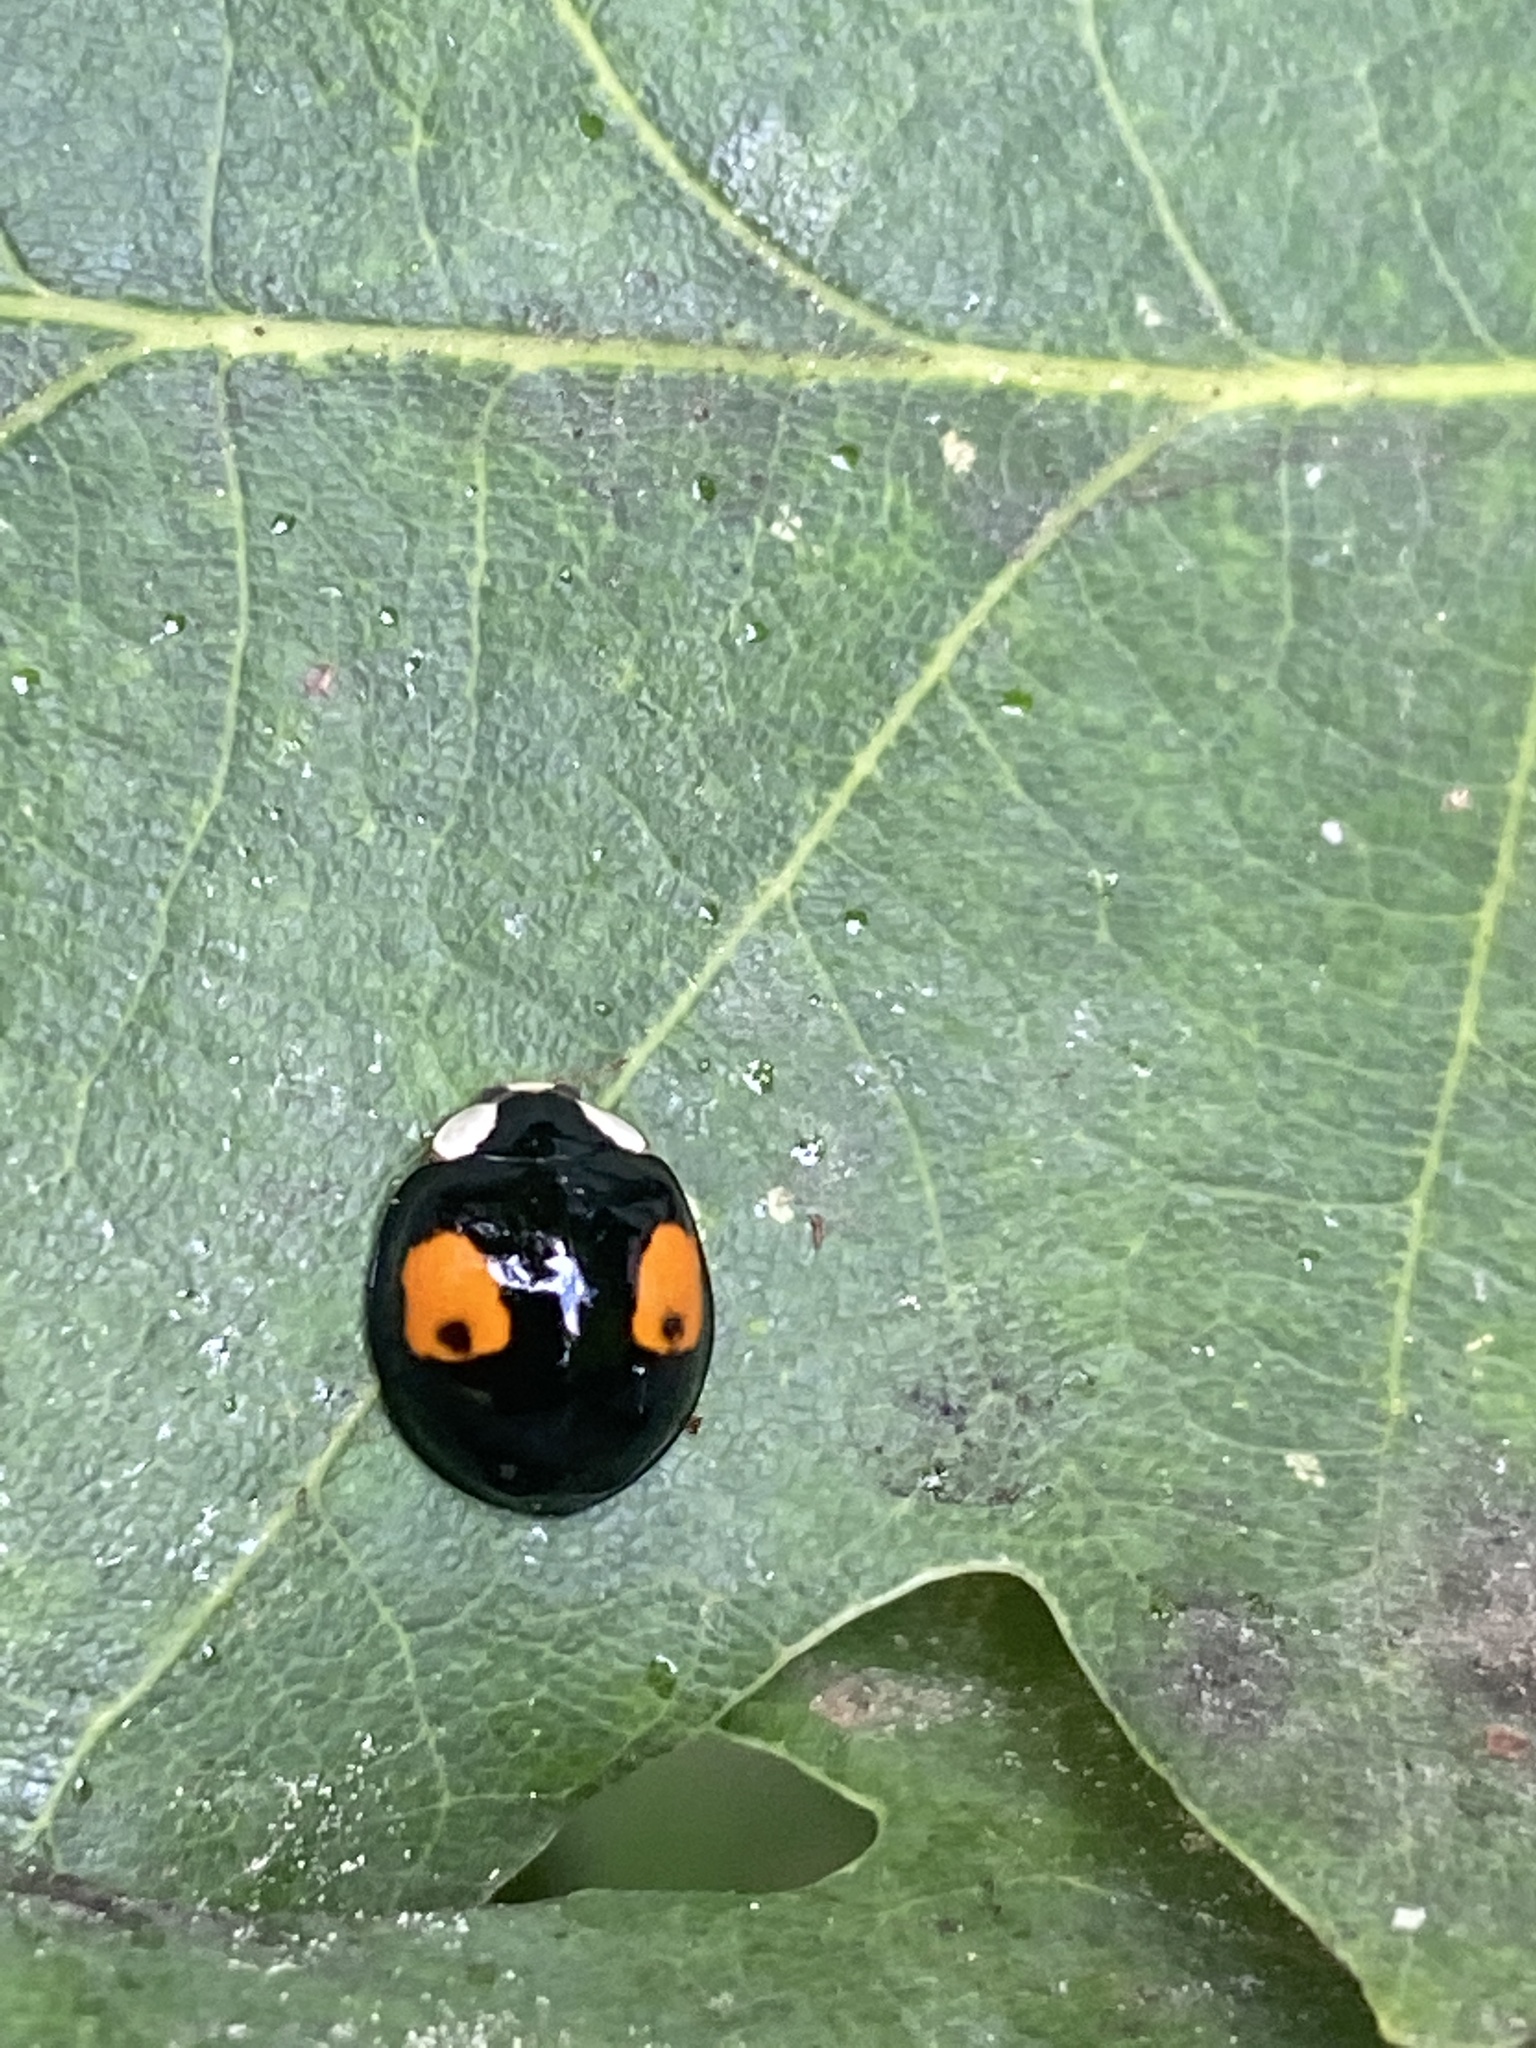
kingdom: Animalia
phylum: Arthropoda
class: Insecta
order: Coleoptera
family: Coccinellidae
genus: Harmonia
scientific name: Harmonia axyridis
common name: Harlequin ladybird
